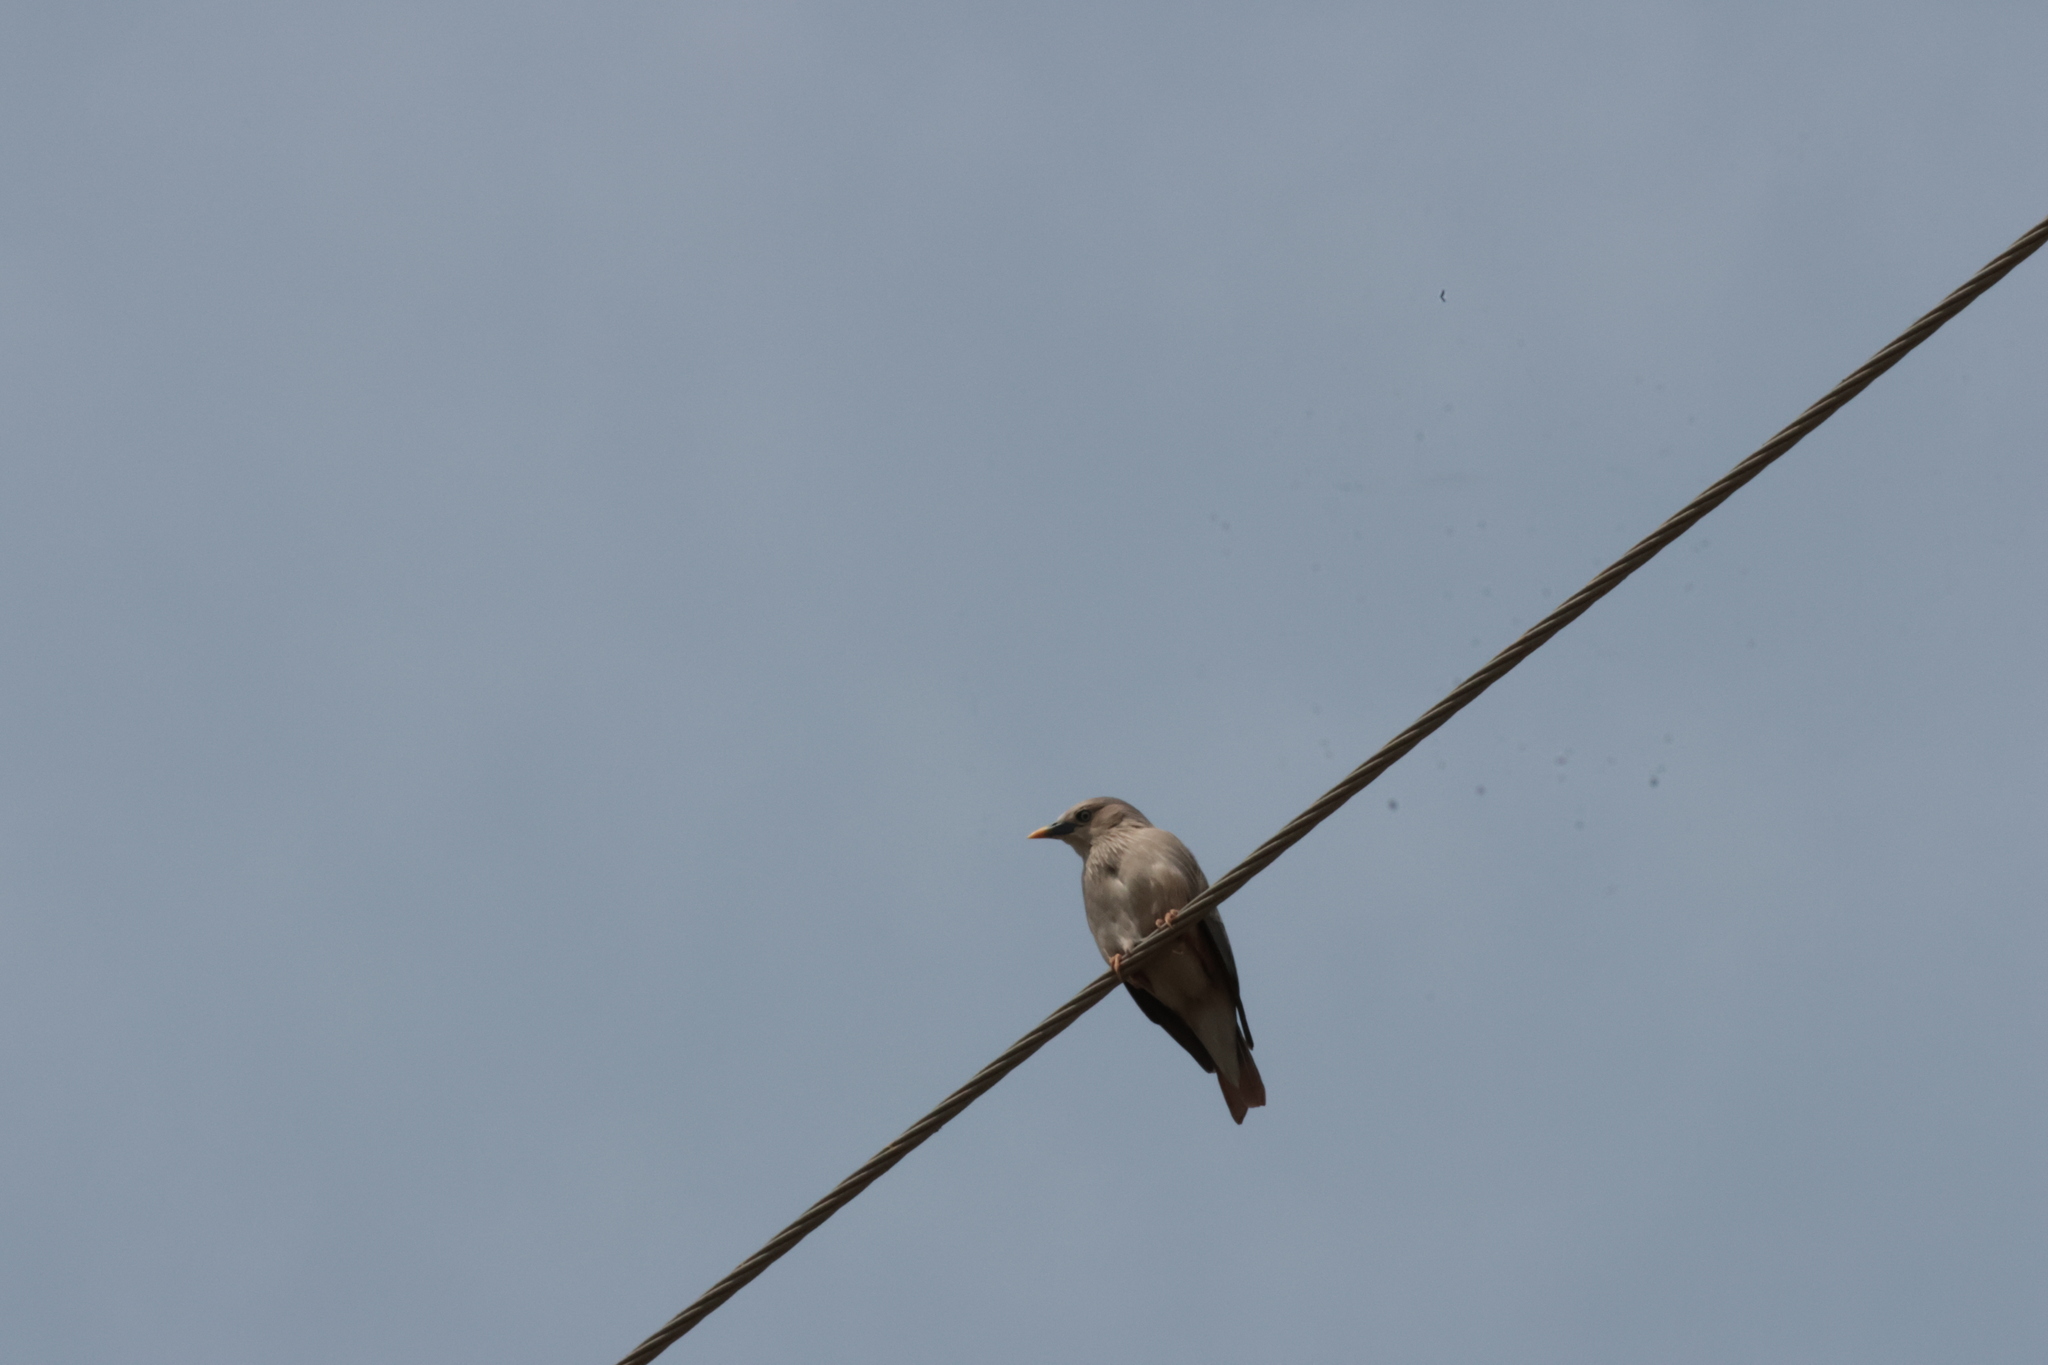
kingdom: Animalia
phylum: Chordata
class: Aves
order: Passeriformes
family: Sturnidae
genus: Sturnia
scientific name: Sturnia malabarica
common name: Chestnut-tailed starling
